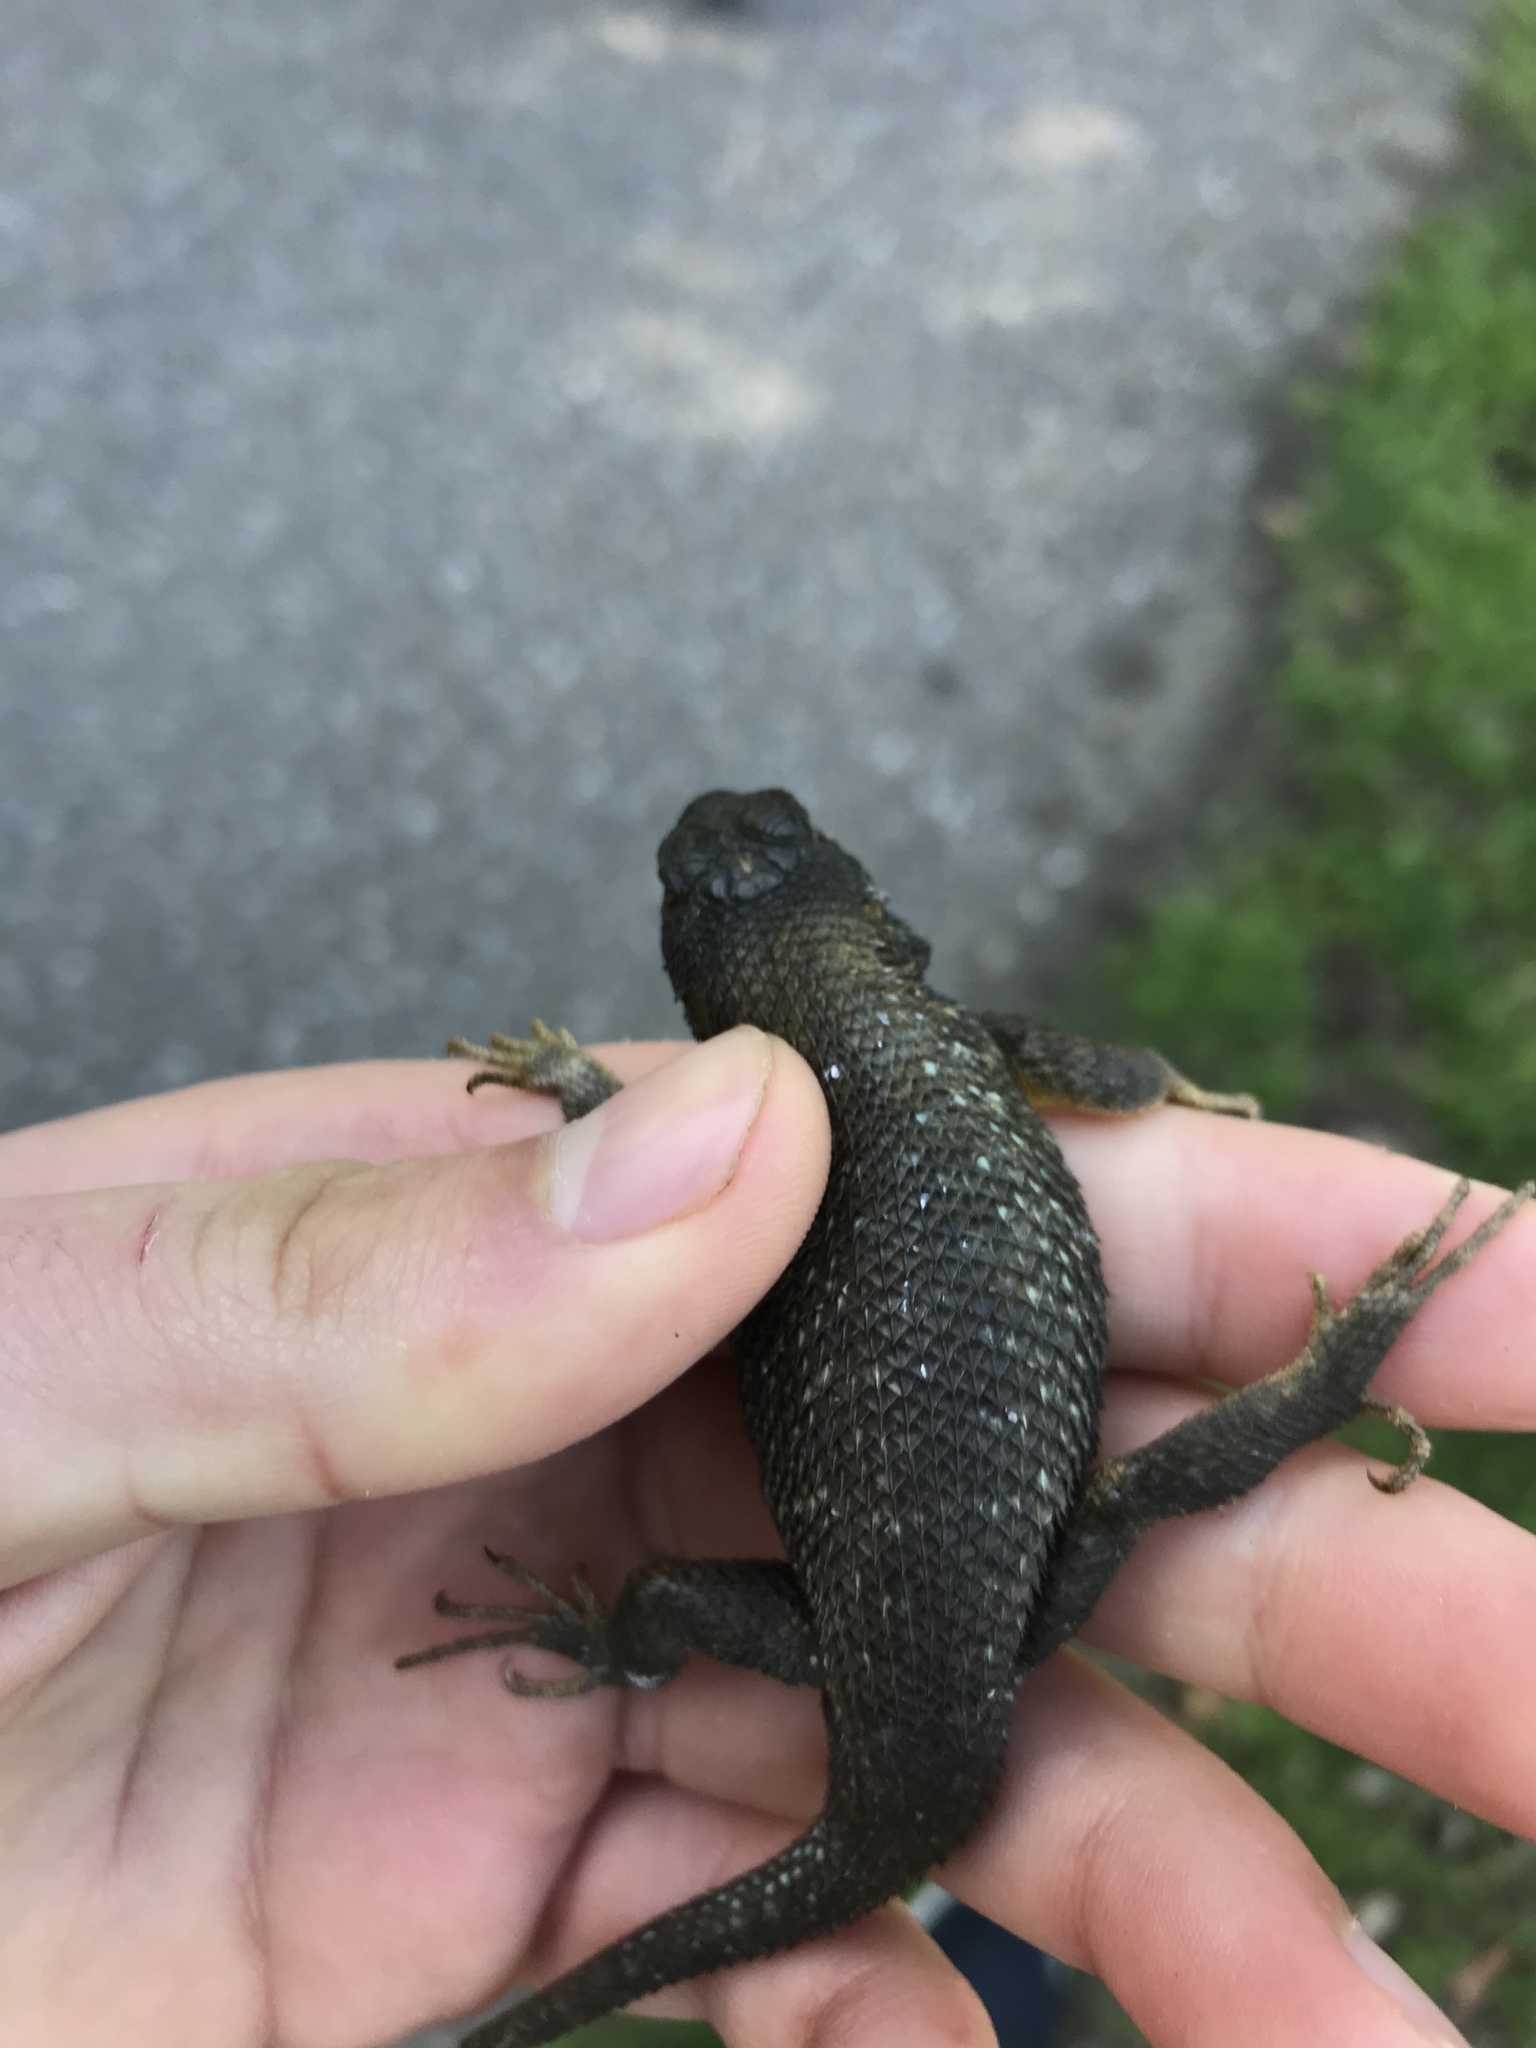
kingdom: Animalia
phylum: Chordata
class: Squamata
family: Phrynosomatidae
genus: Sceloporus
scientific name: Sceloporus occidentalis
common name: Western fence lizard
